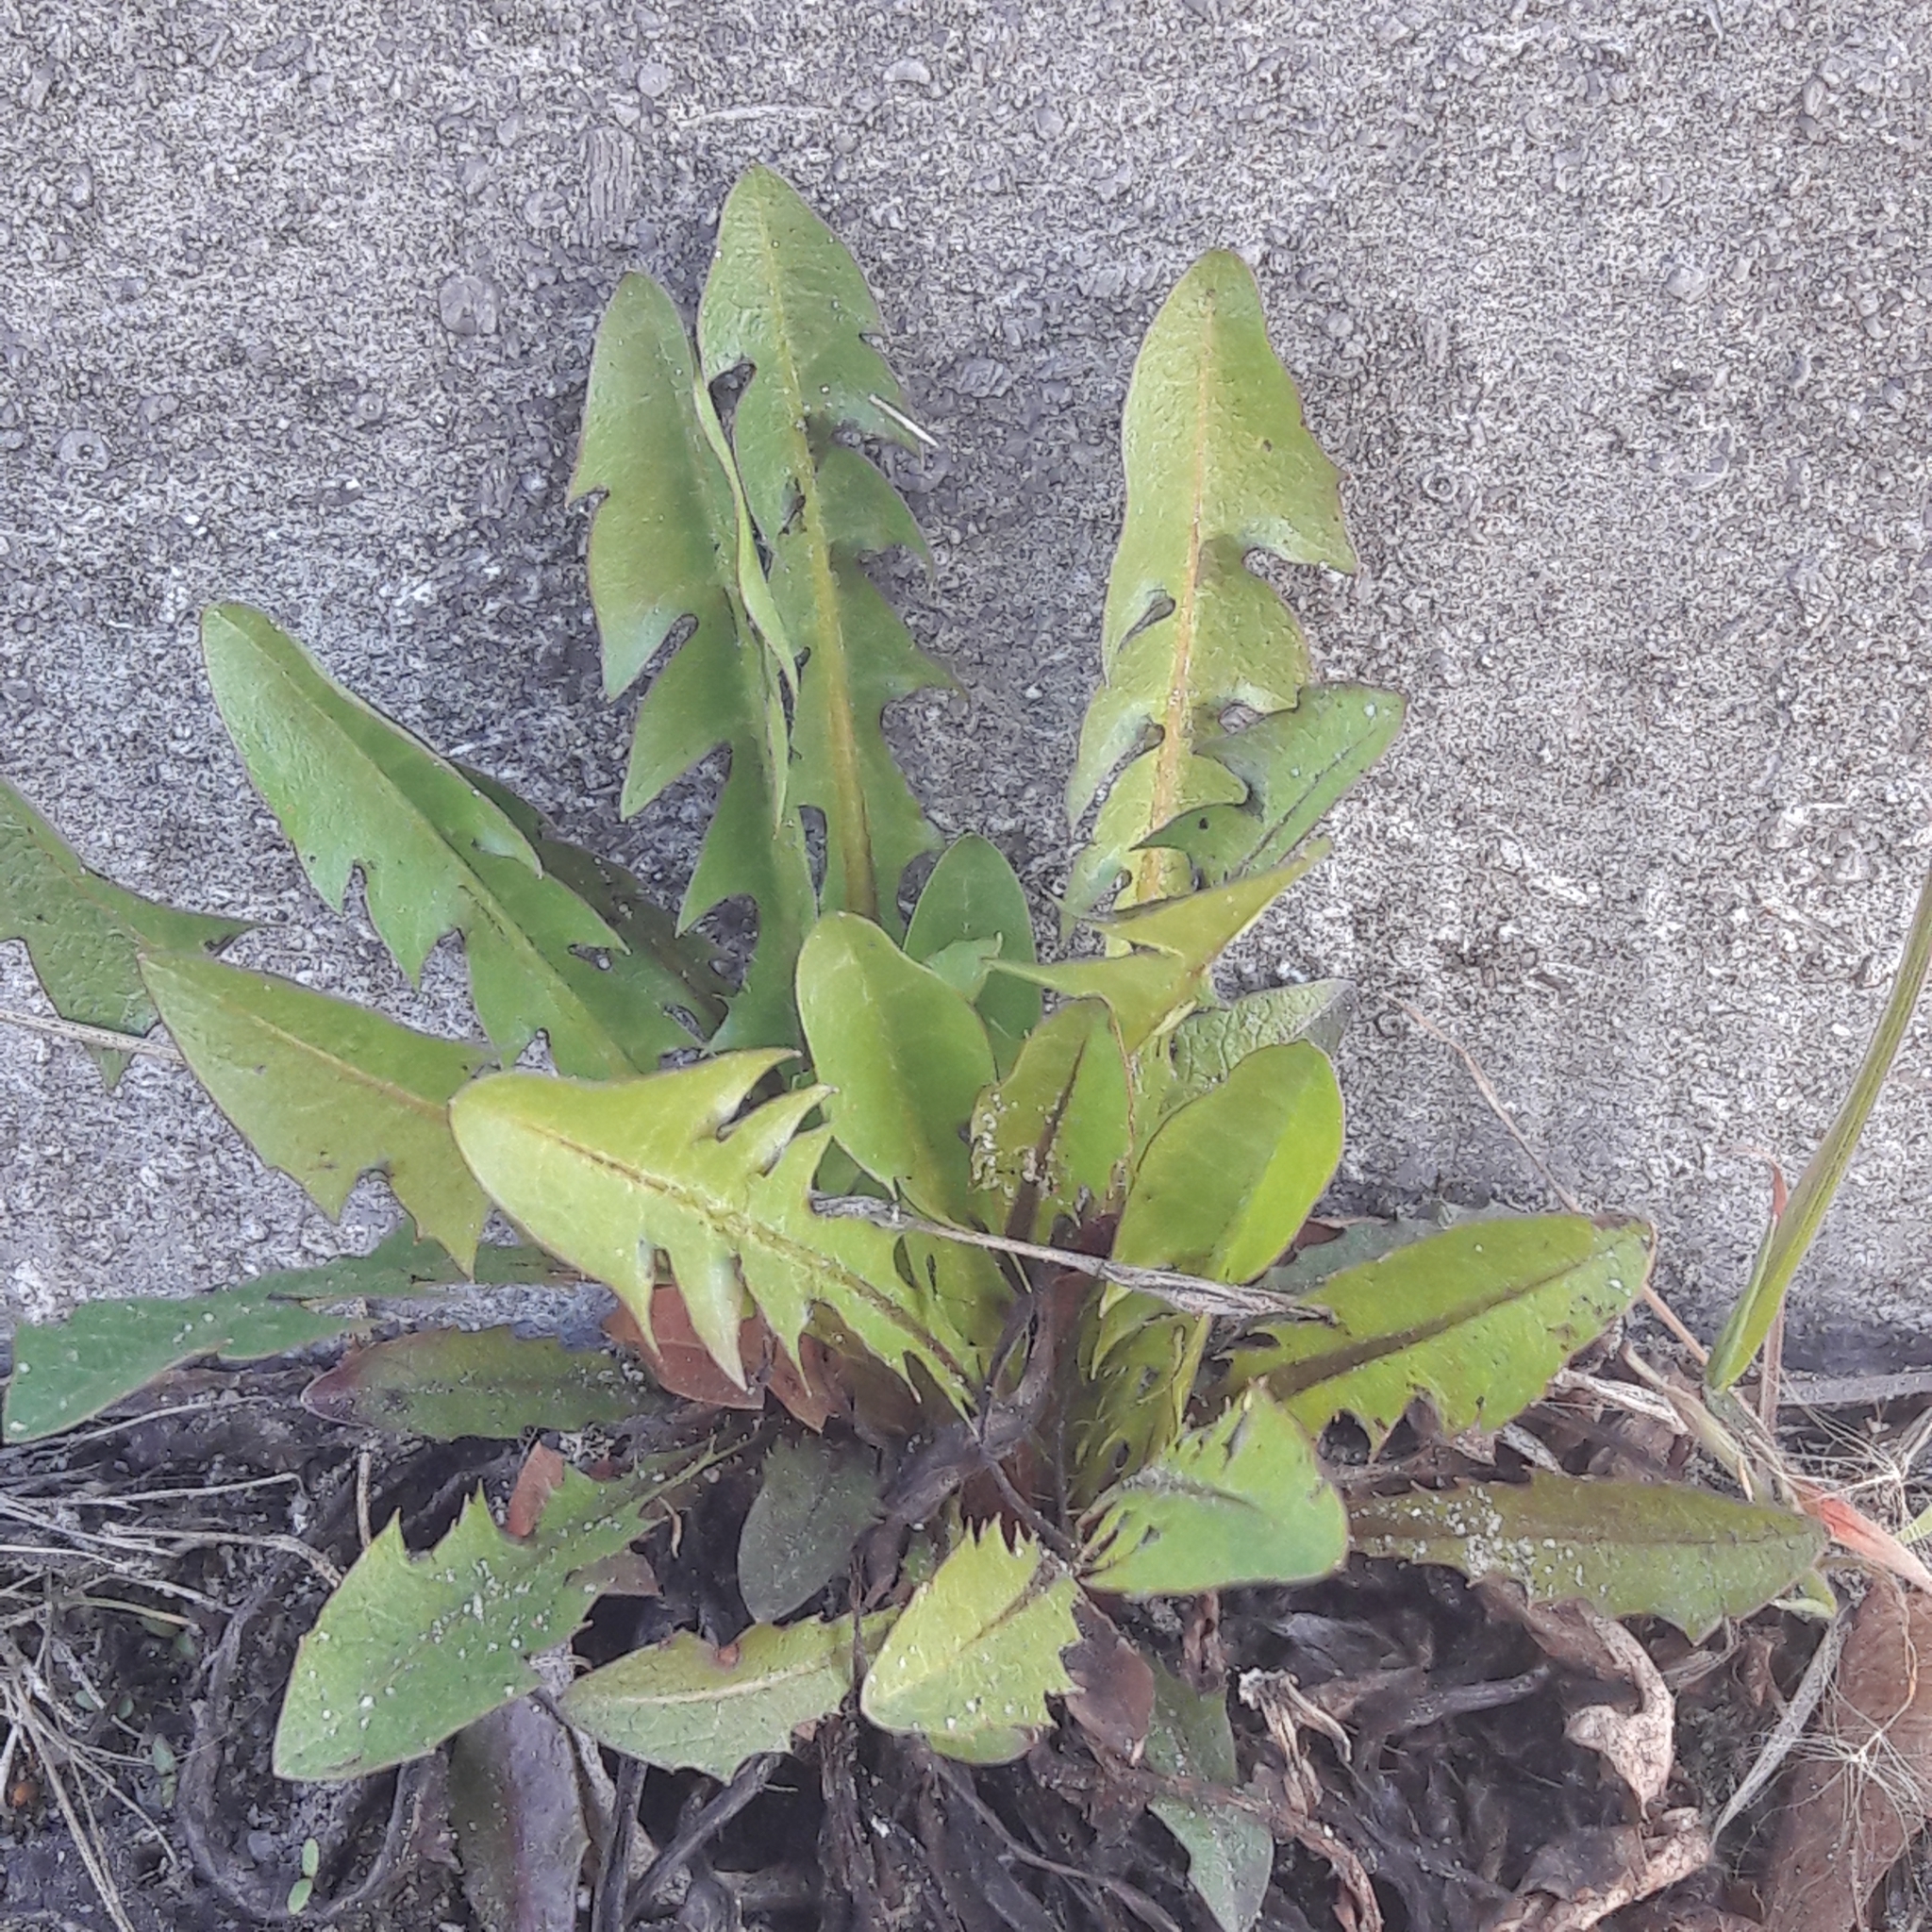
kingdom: Plantae
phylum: Tracheophyta
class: Magnoliopsida
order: Asterales
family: Asteraceae
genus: Taraxacum
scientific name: Taraxacum officinale
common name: Common dandelion
